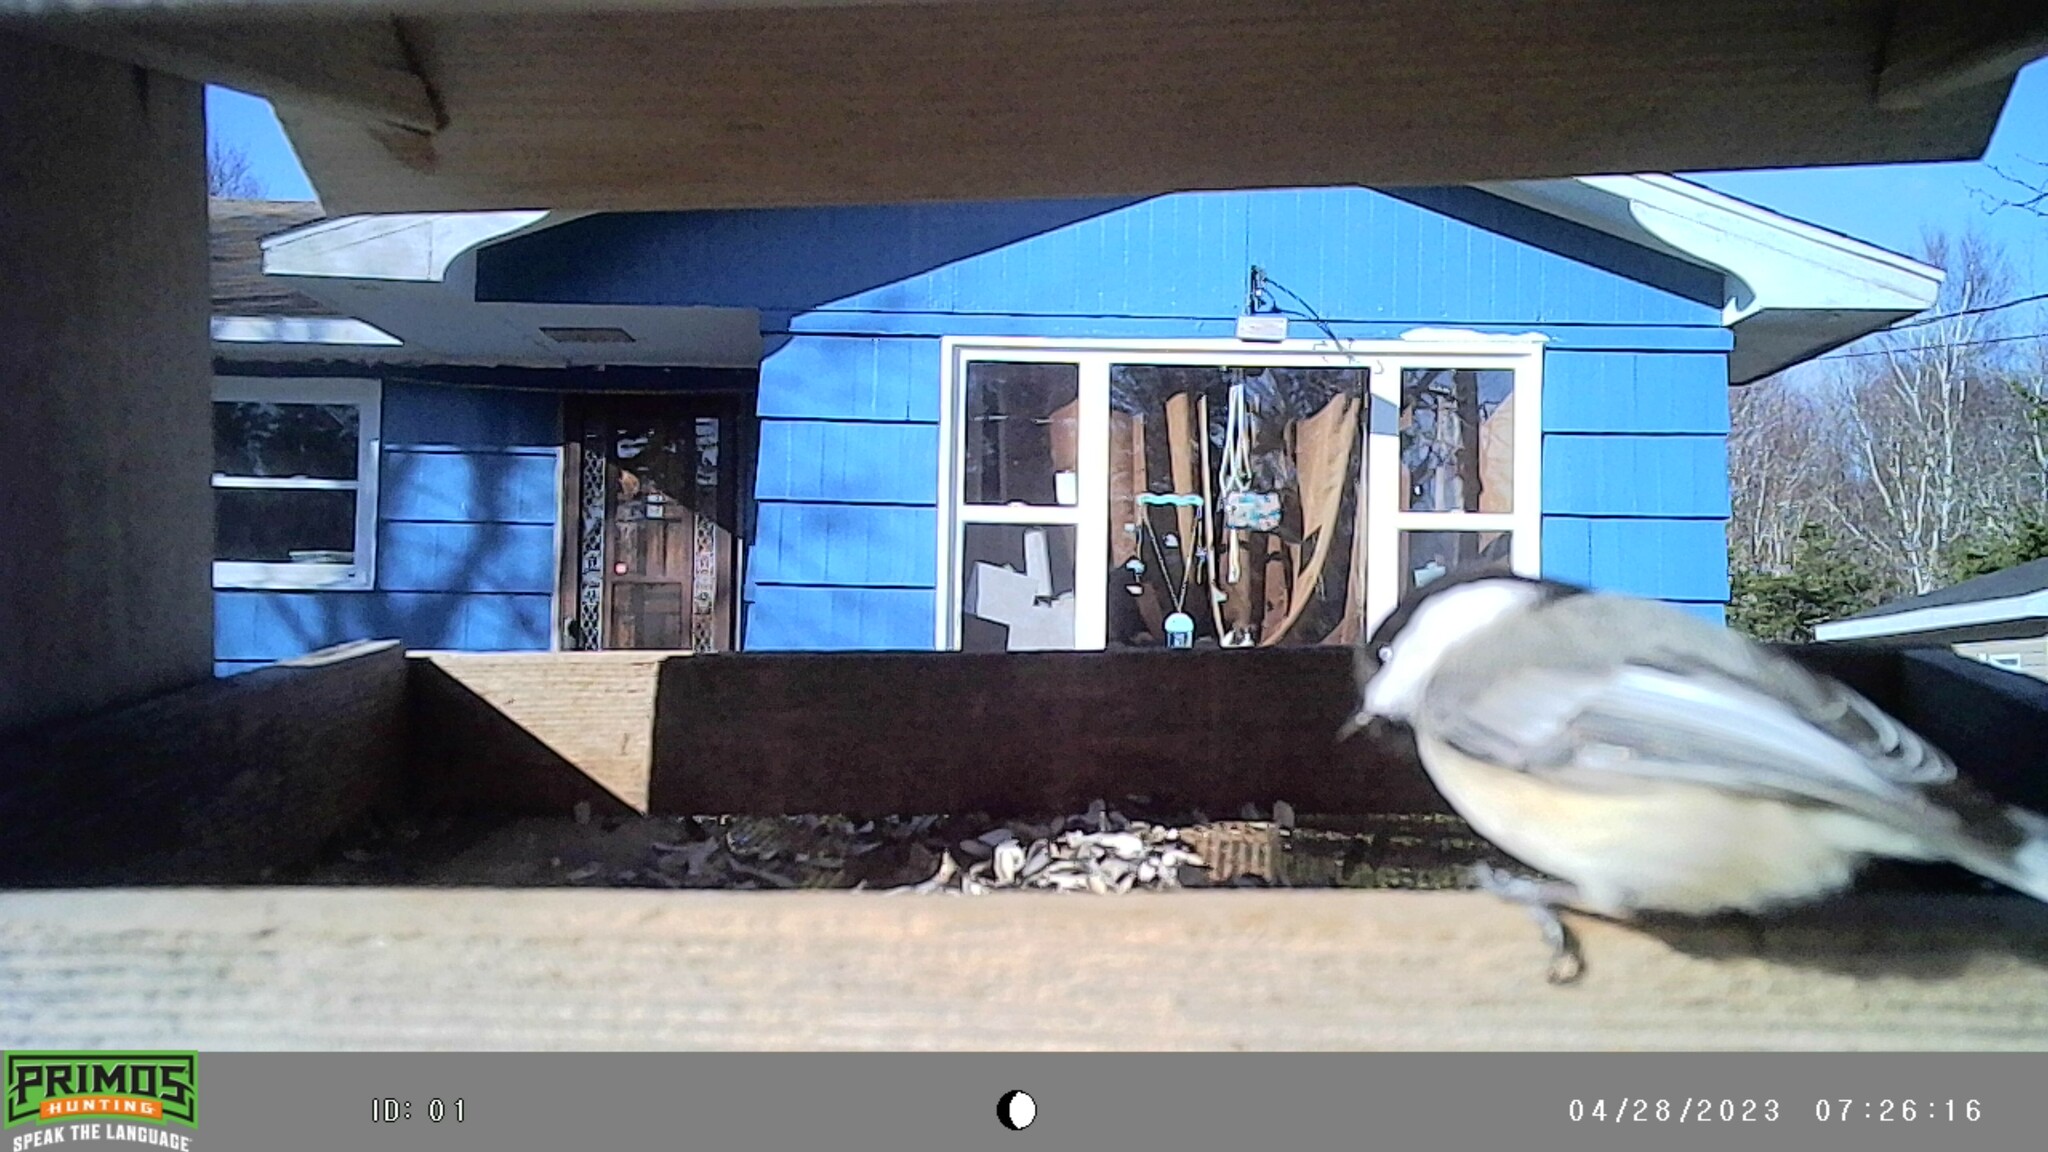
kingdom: Animalia
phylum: Chordata
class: Aves
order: Passeriformes
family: Paridae
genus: Poecile
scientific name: Poecile atricapillus
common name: Black-capped chickadee
